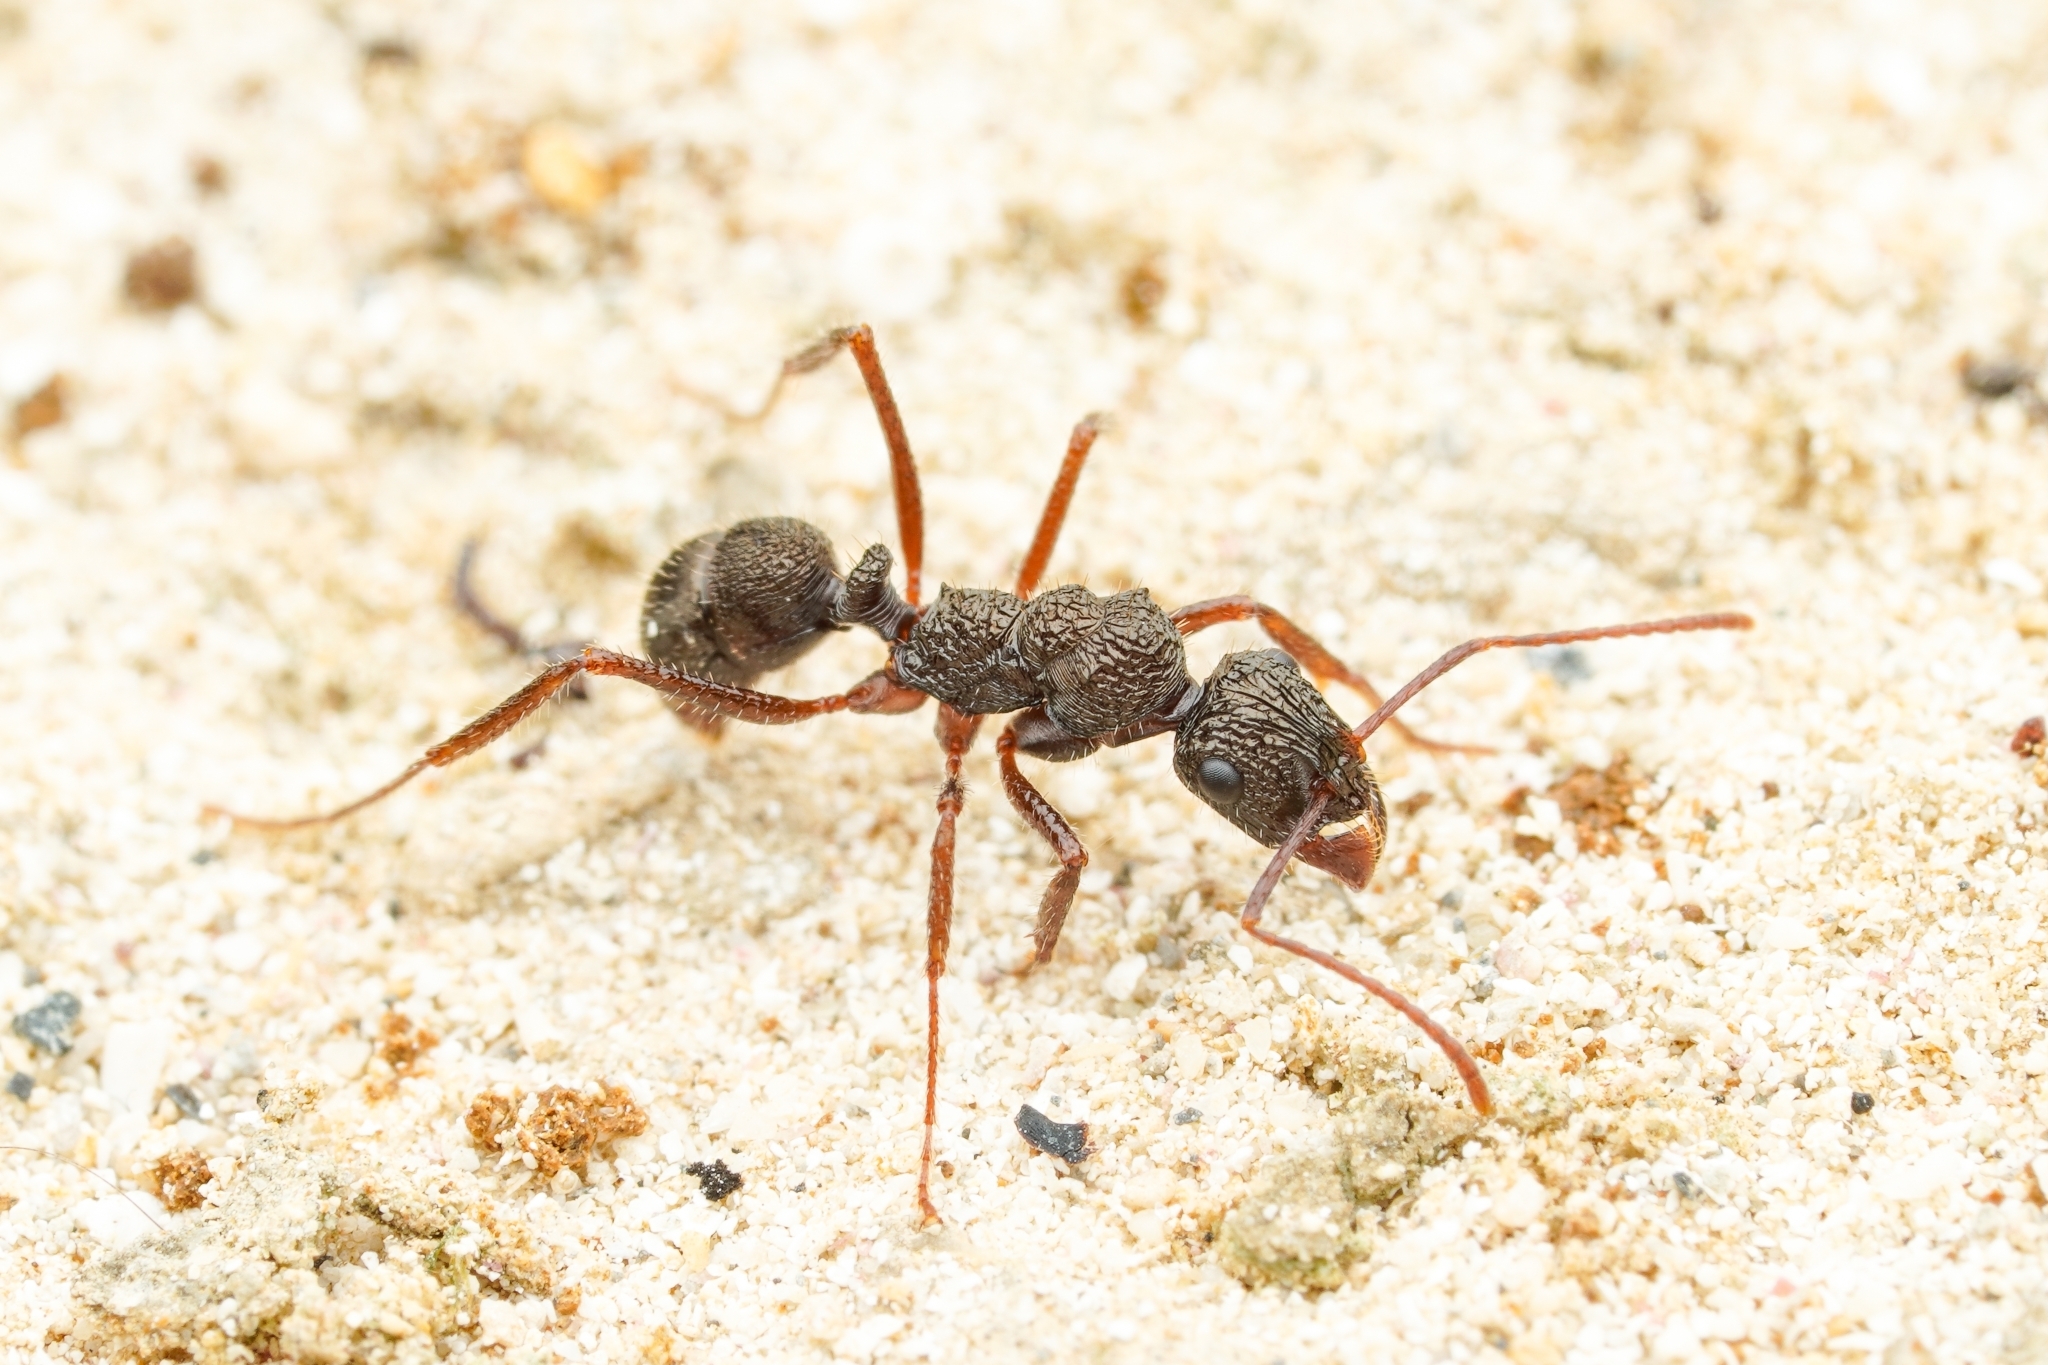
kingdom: Animalia
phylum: Arthropoda
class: Insecta
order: Hymenoptera
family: Formicidae
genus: Ectatomma
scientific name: Ectatomma ruidum
